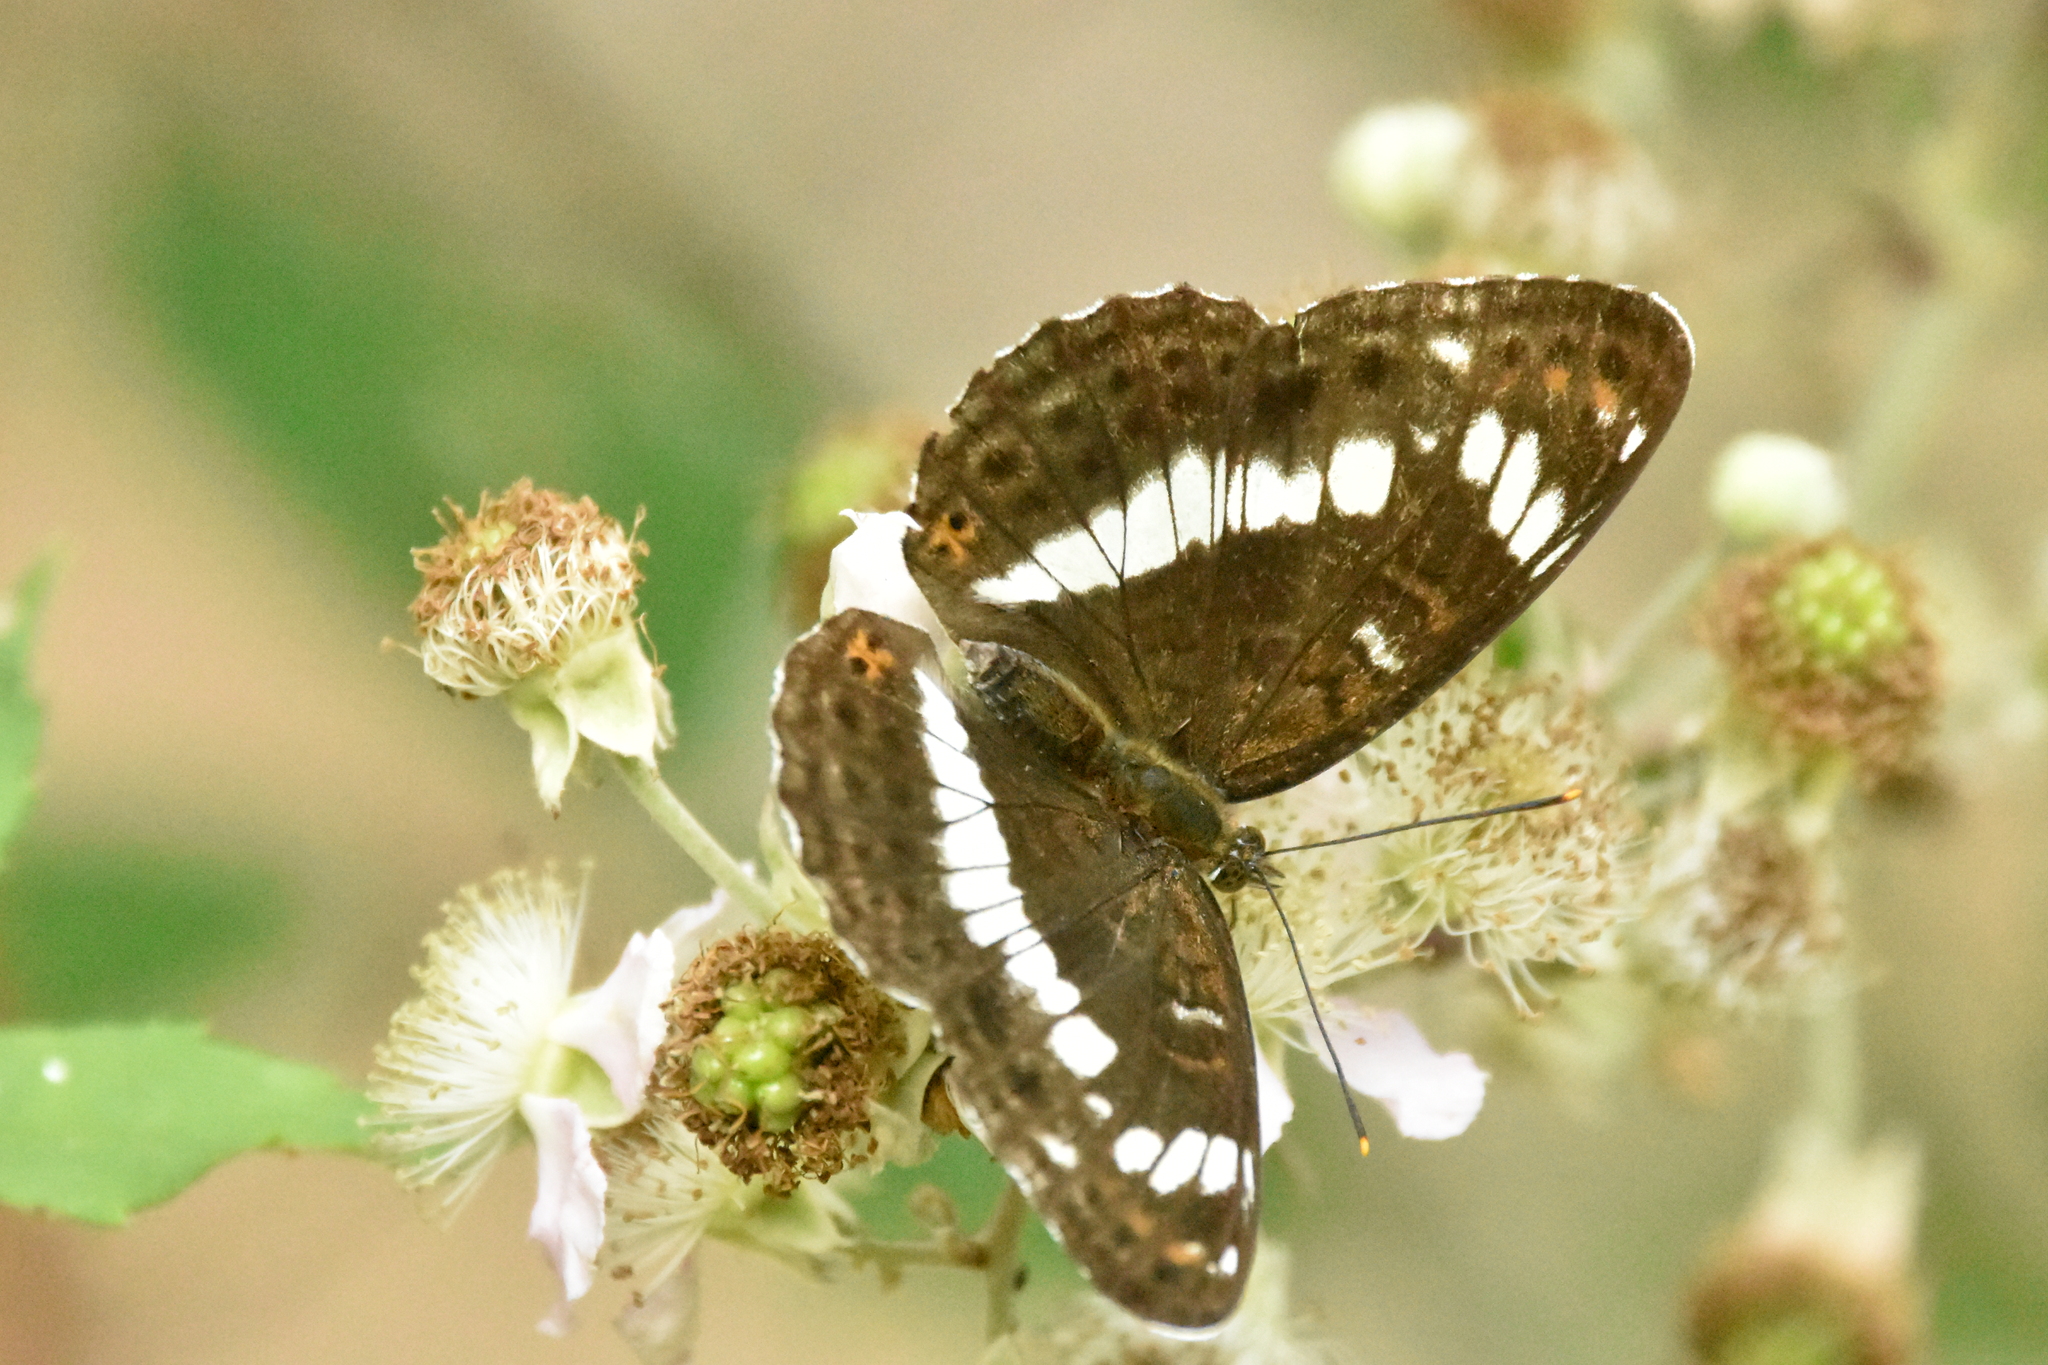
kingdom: Animalia
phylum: Arthropoda
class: Insecta
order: Lepidoptera
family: Nymphalidae
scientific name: Nymphalidae
